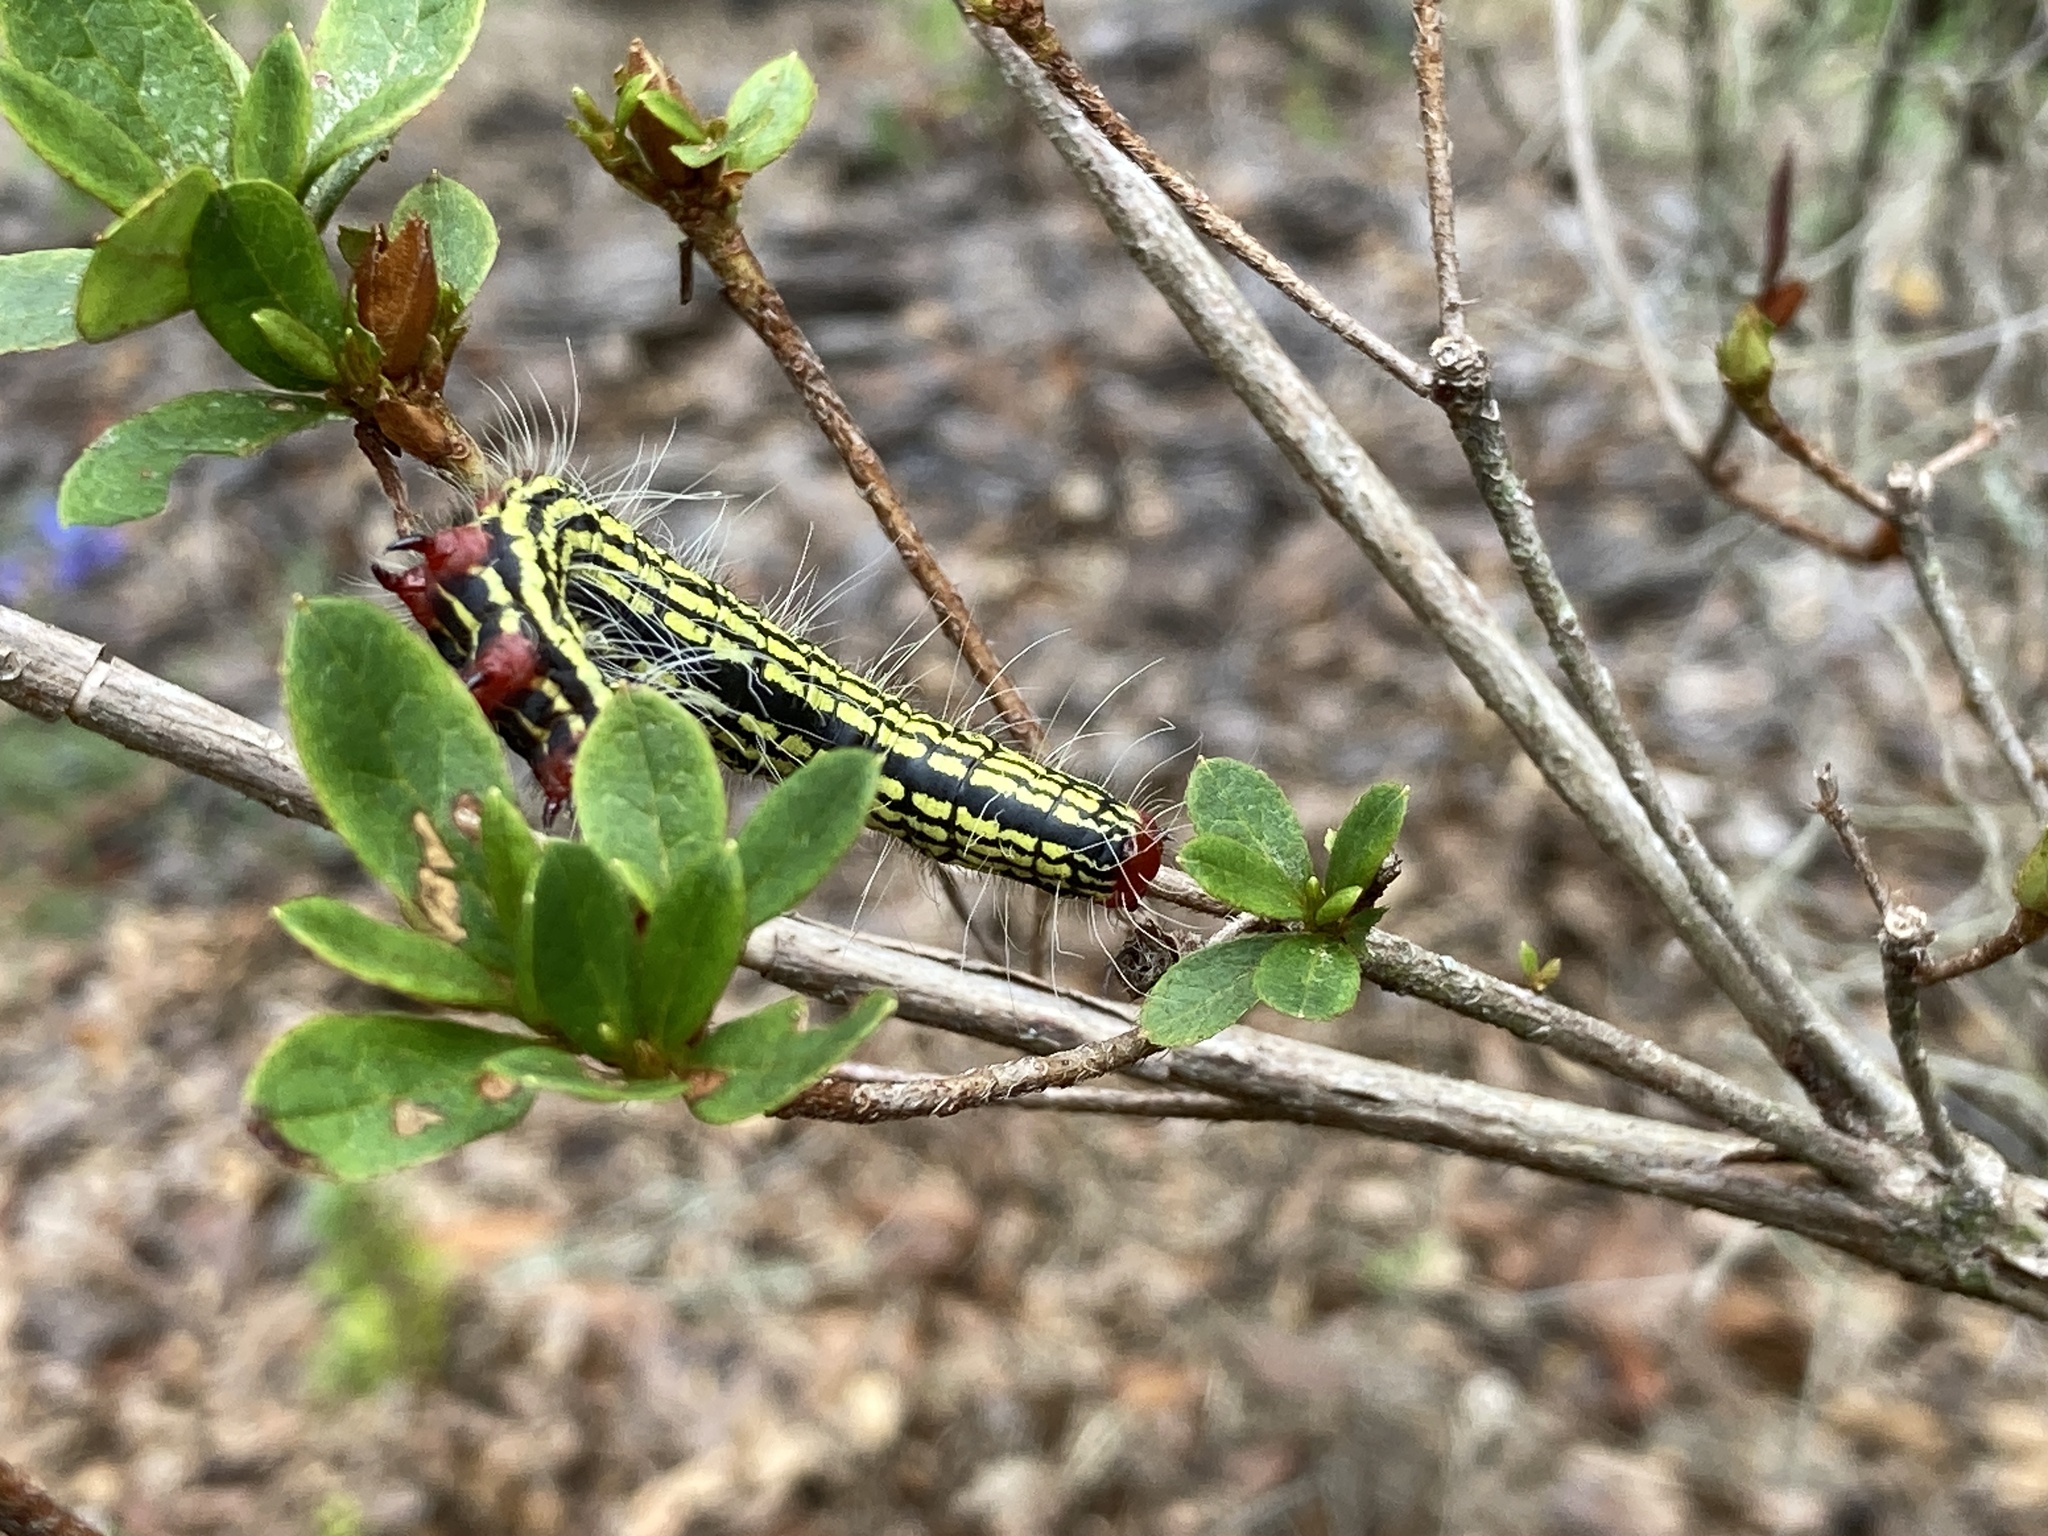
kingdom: Animalia
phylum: Arthropoda
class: Insecta
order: Lepidoptera
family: Notodontidae
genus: Datana
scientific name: Datana major
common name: Azalea caterpillar
